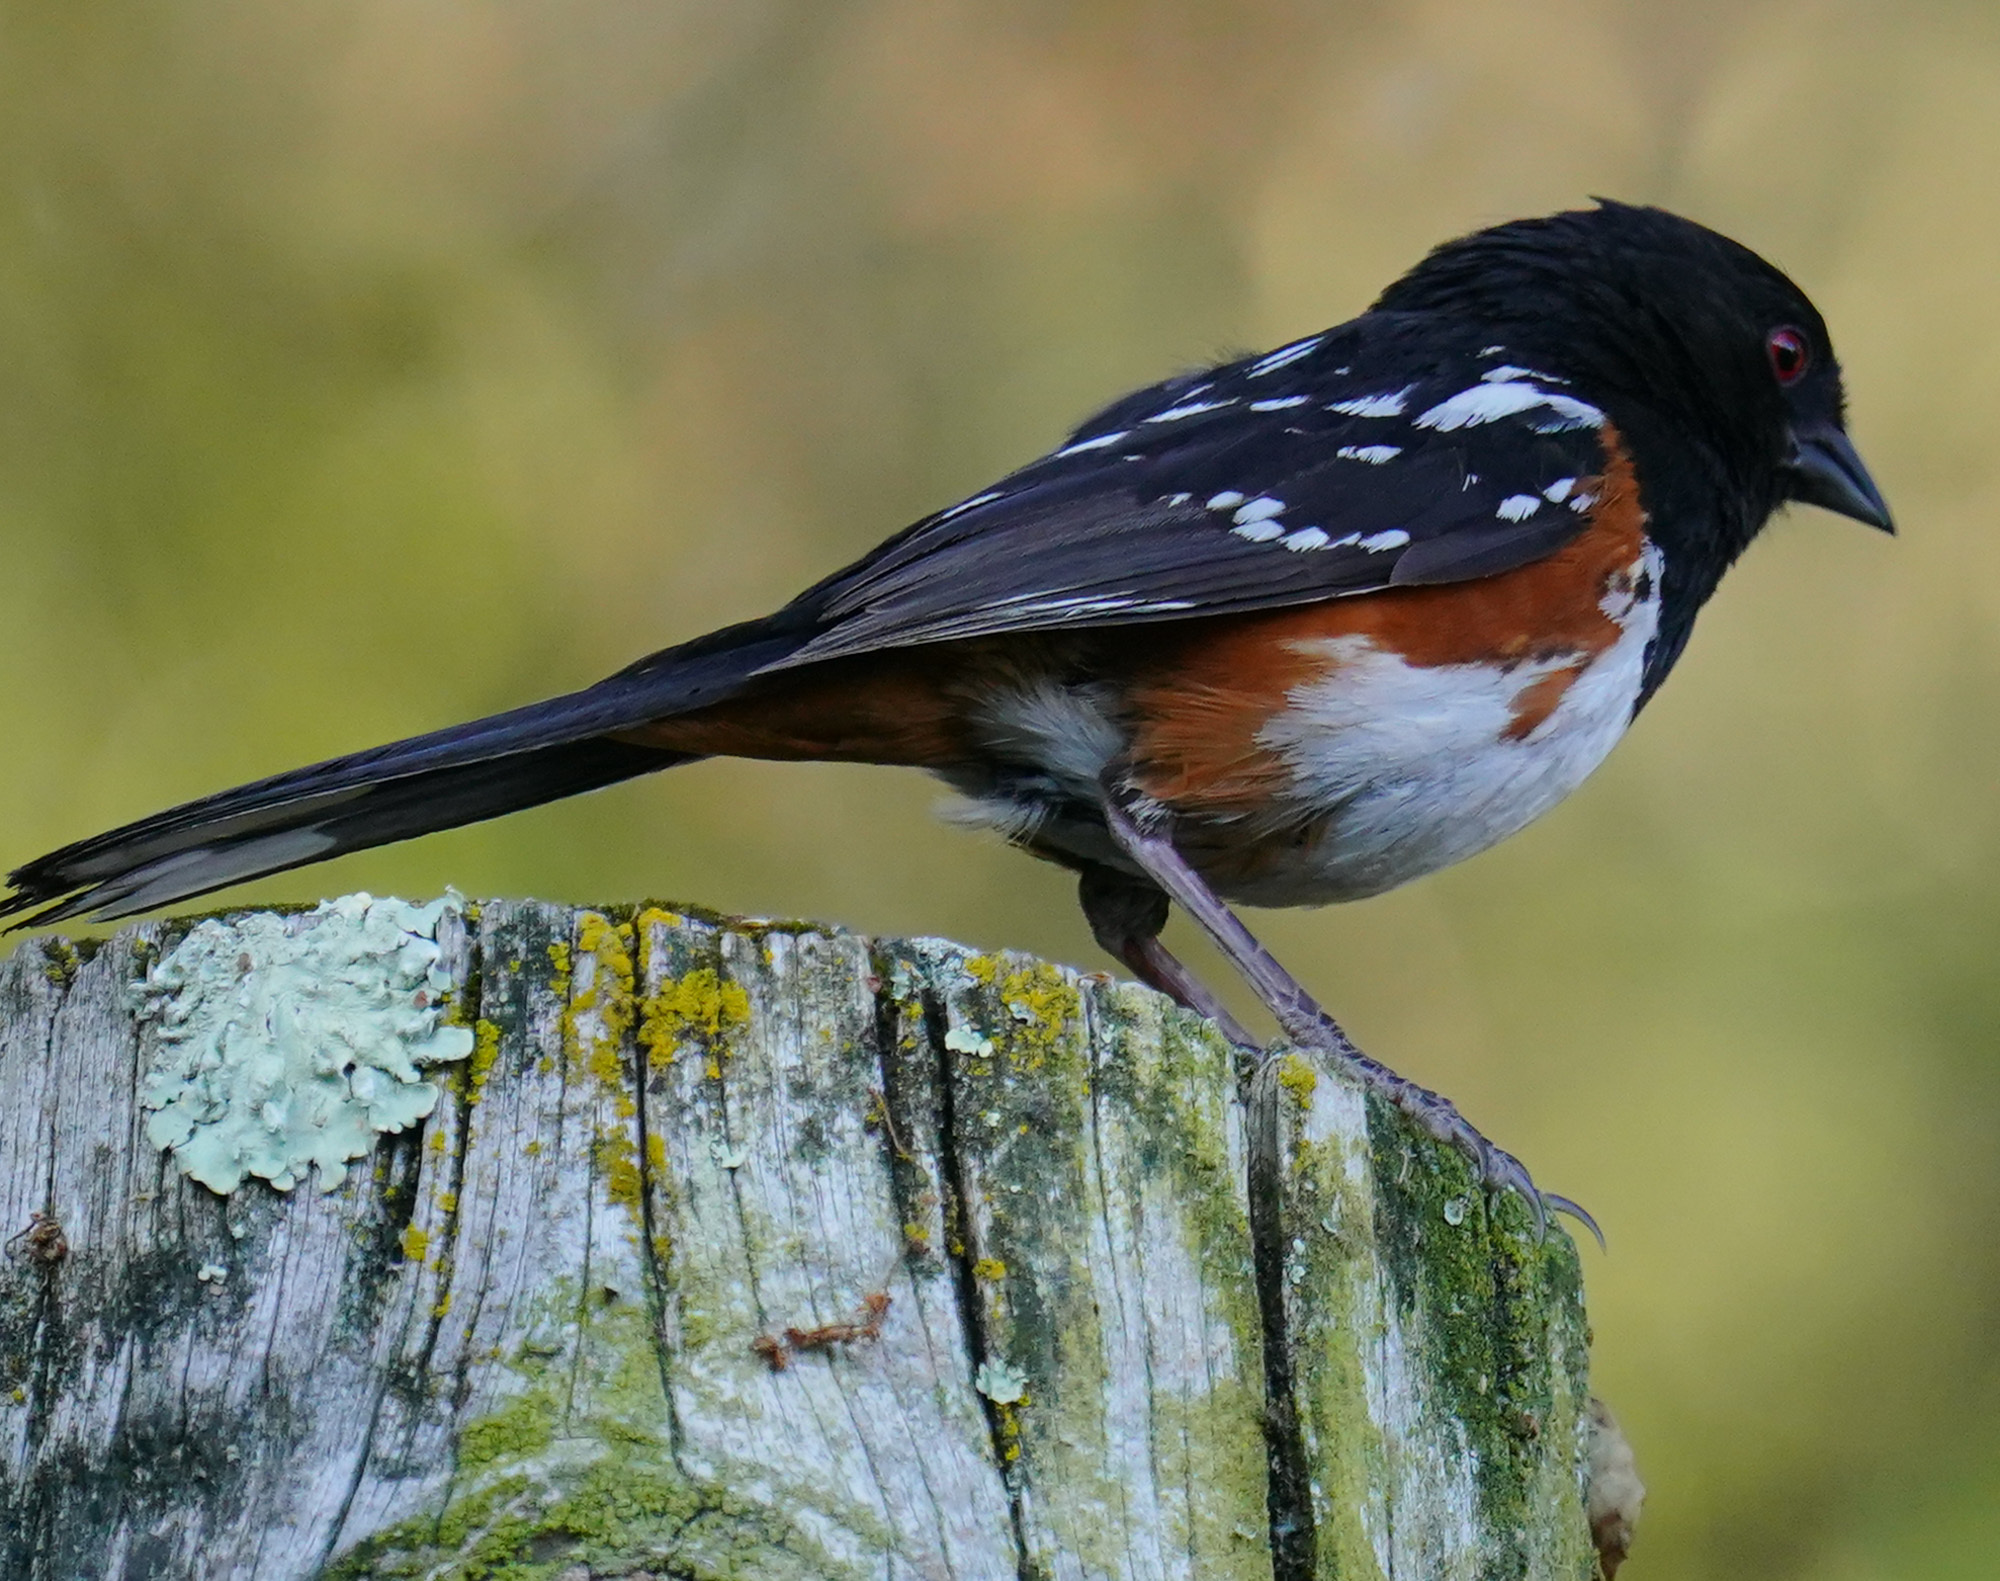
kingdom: Animalia
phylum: Chordata
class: Aves
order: Passeriformes
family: Passerellidae
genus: Pipilo
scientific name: Pipilo maculatus
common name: Spotted towhee
